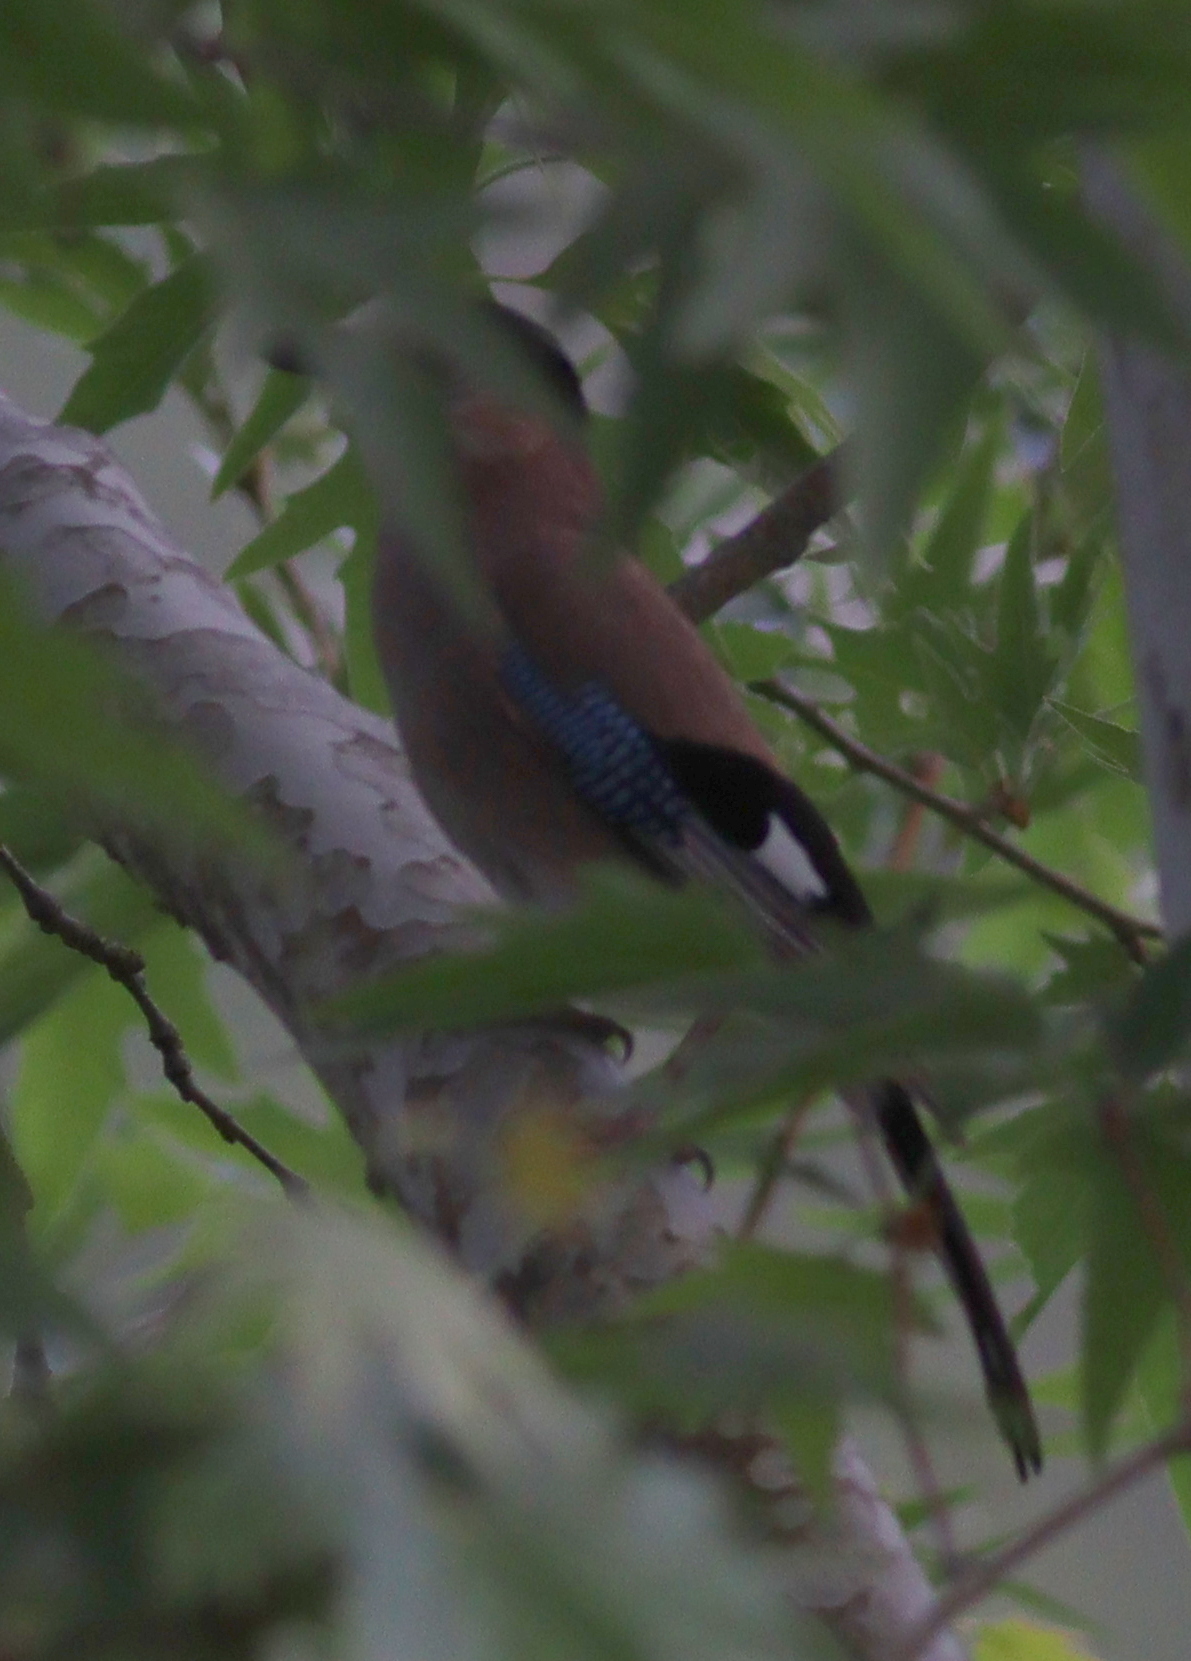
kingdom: Animalia
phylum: Chordata
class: Aves
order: Passeriformes
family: Corvidae
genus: Garrulus
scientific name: Garrulus glandarius
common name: Eurasian jay
